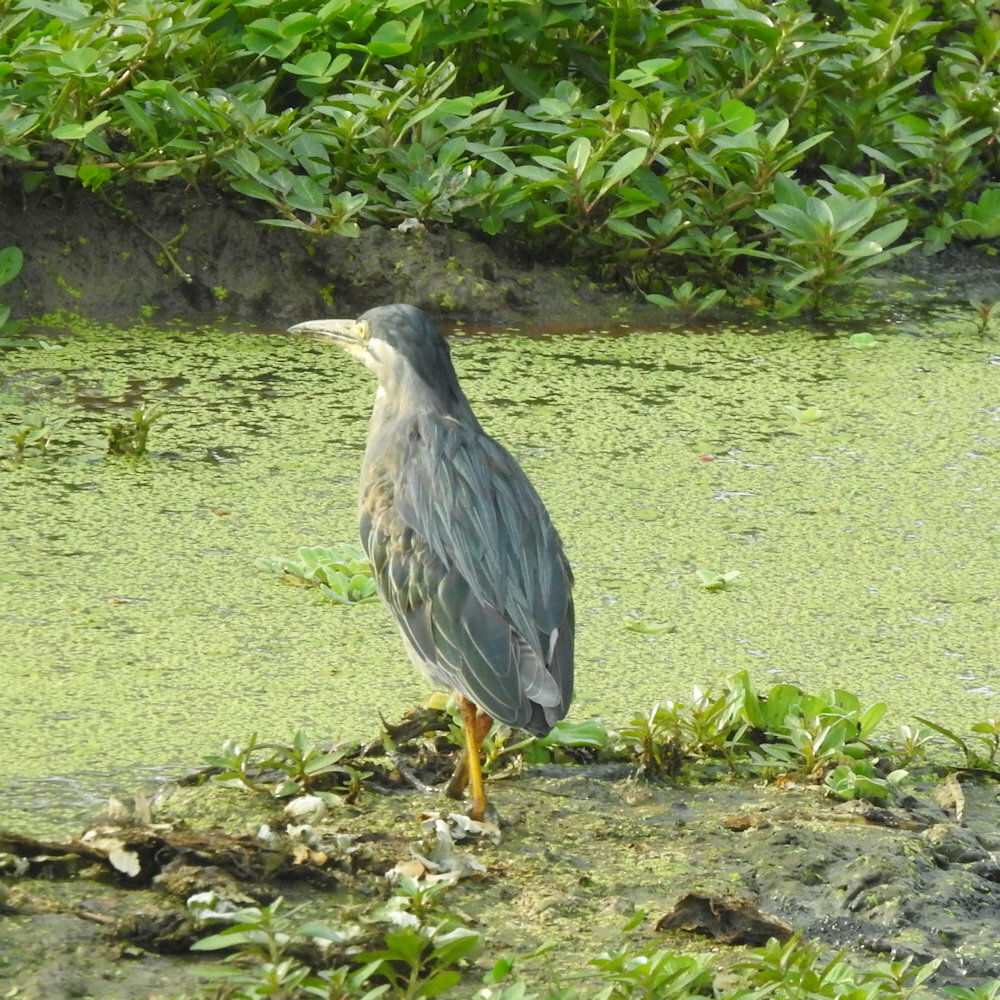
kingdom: Animalia
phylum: Chordata
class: Aves
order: Pelecaniformes
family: Ardeidae
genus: Butorides
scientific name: Butorides striata
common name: Striated heron
